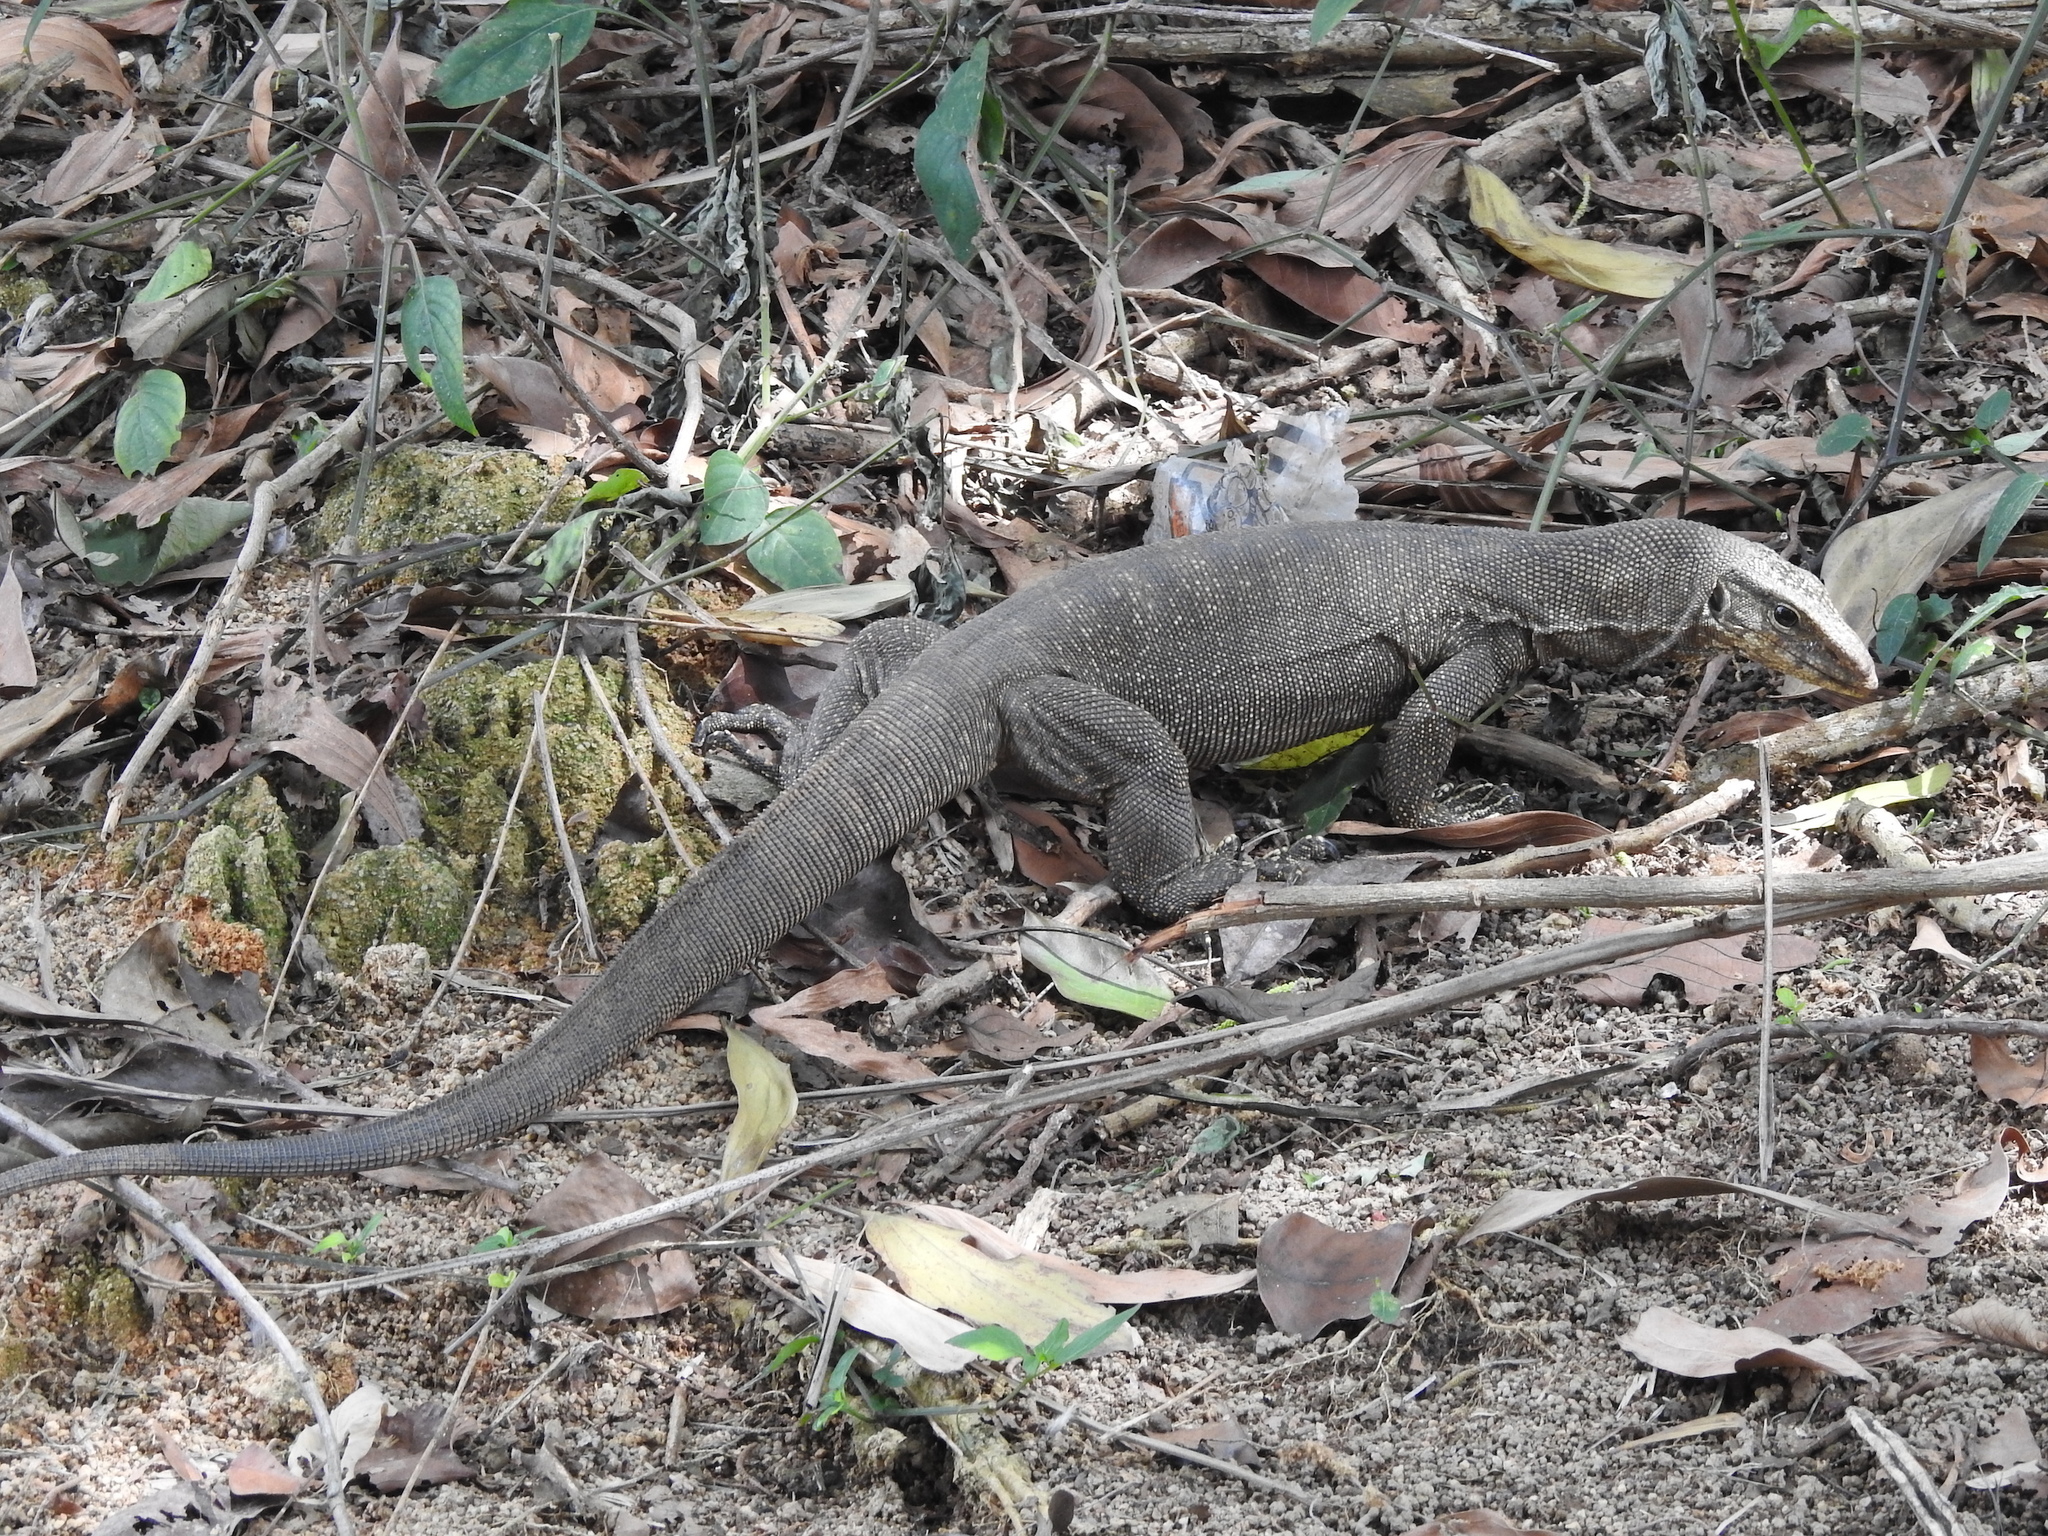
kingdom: Animalia
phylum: Chordata
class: Squamata
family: Varanidae
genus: Varanus
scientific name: Varanus nebulosus
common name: Clouded monitor
